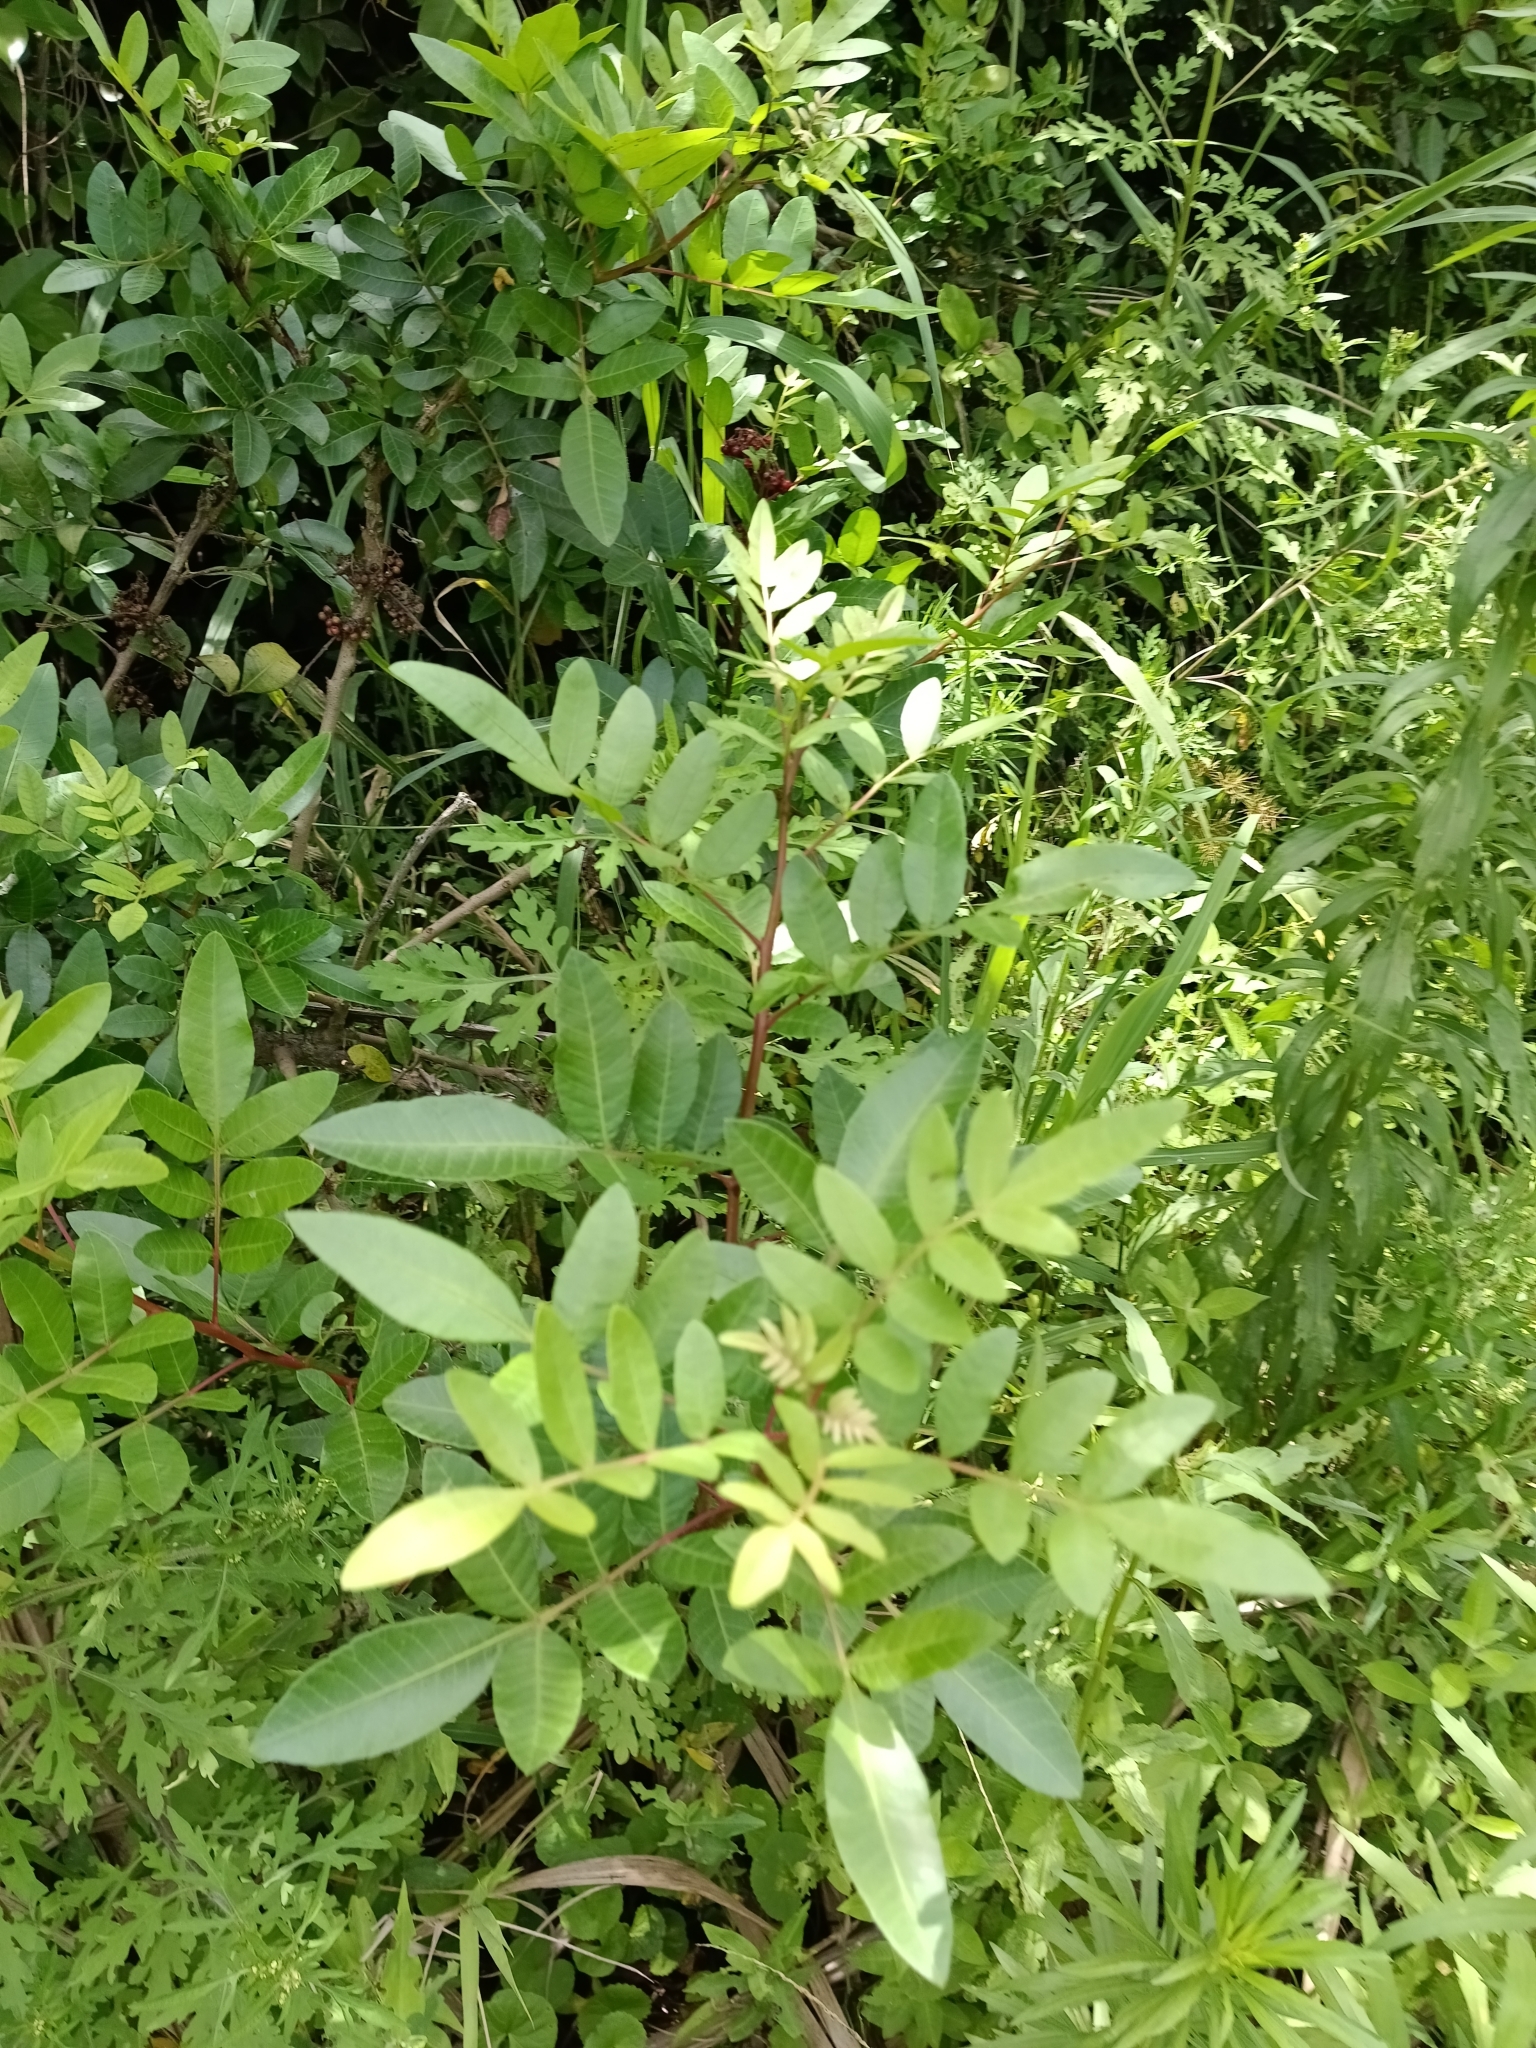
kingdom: Plantae
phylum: Tracheophyta
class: Magnoliopsida
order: Sapindales
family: Anacardiaceae
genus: Schinus
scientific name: Schinus terebinthifolia
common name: Brazilian peppertree
